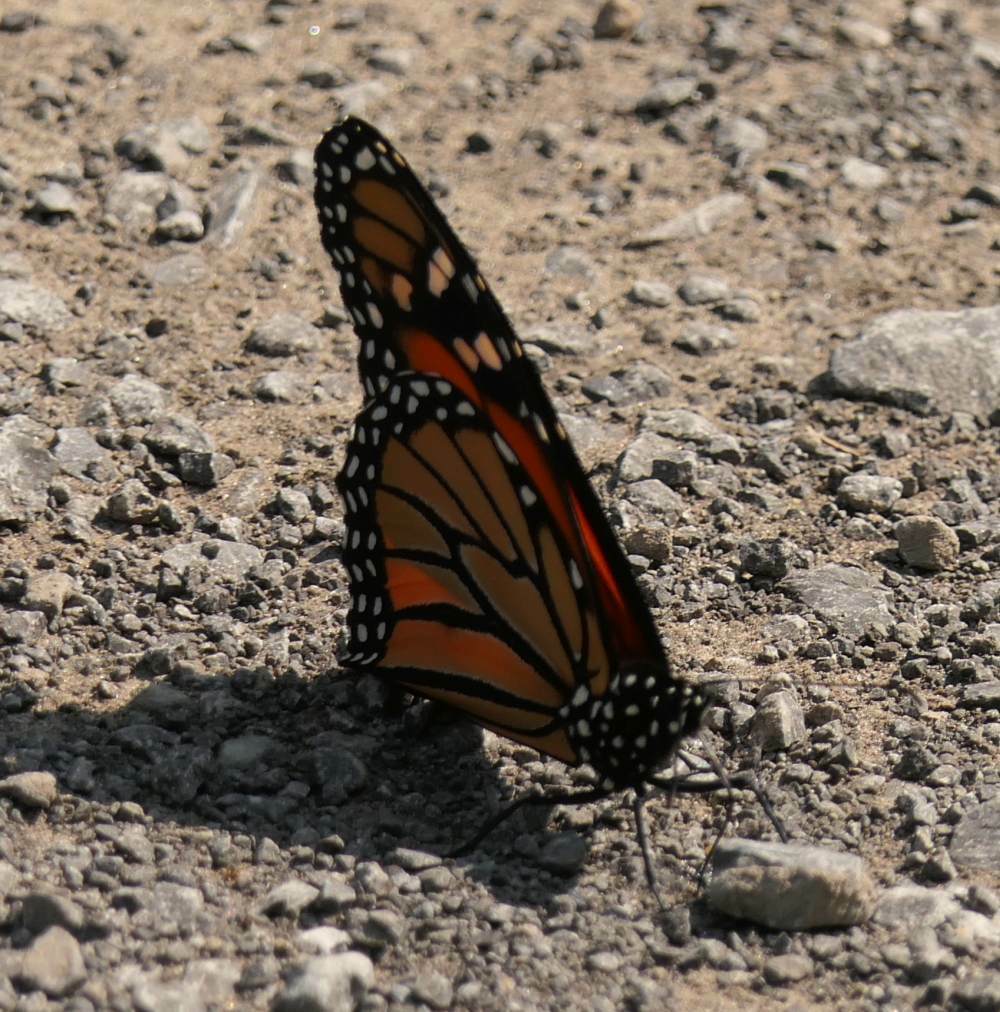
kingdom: Animalia
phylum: Arthropoda
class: Insecta
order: Lepidoptera
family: Nymphalidae
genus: Danaus
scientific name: Danaus plexippus
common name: Monarch
